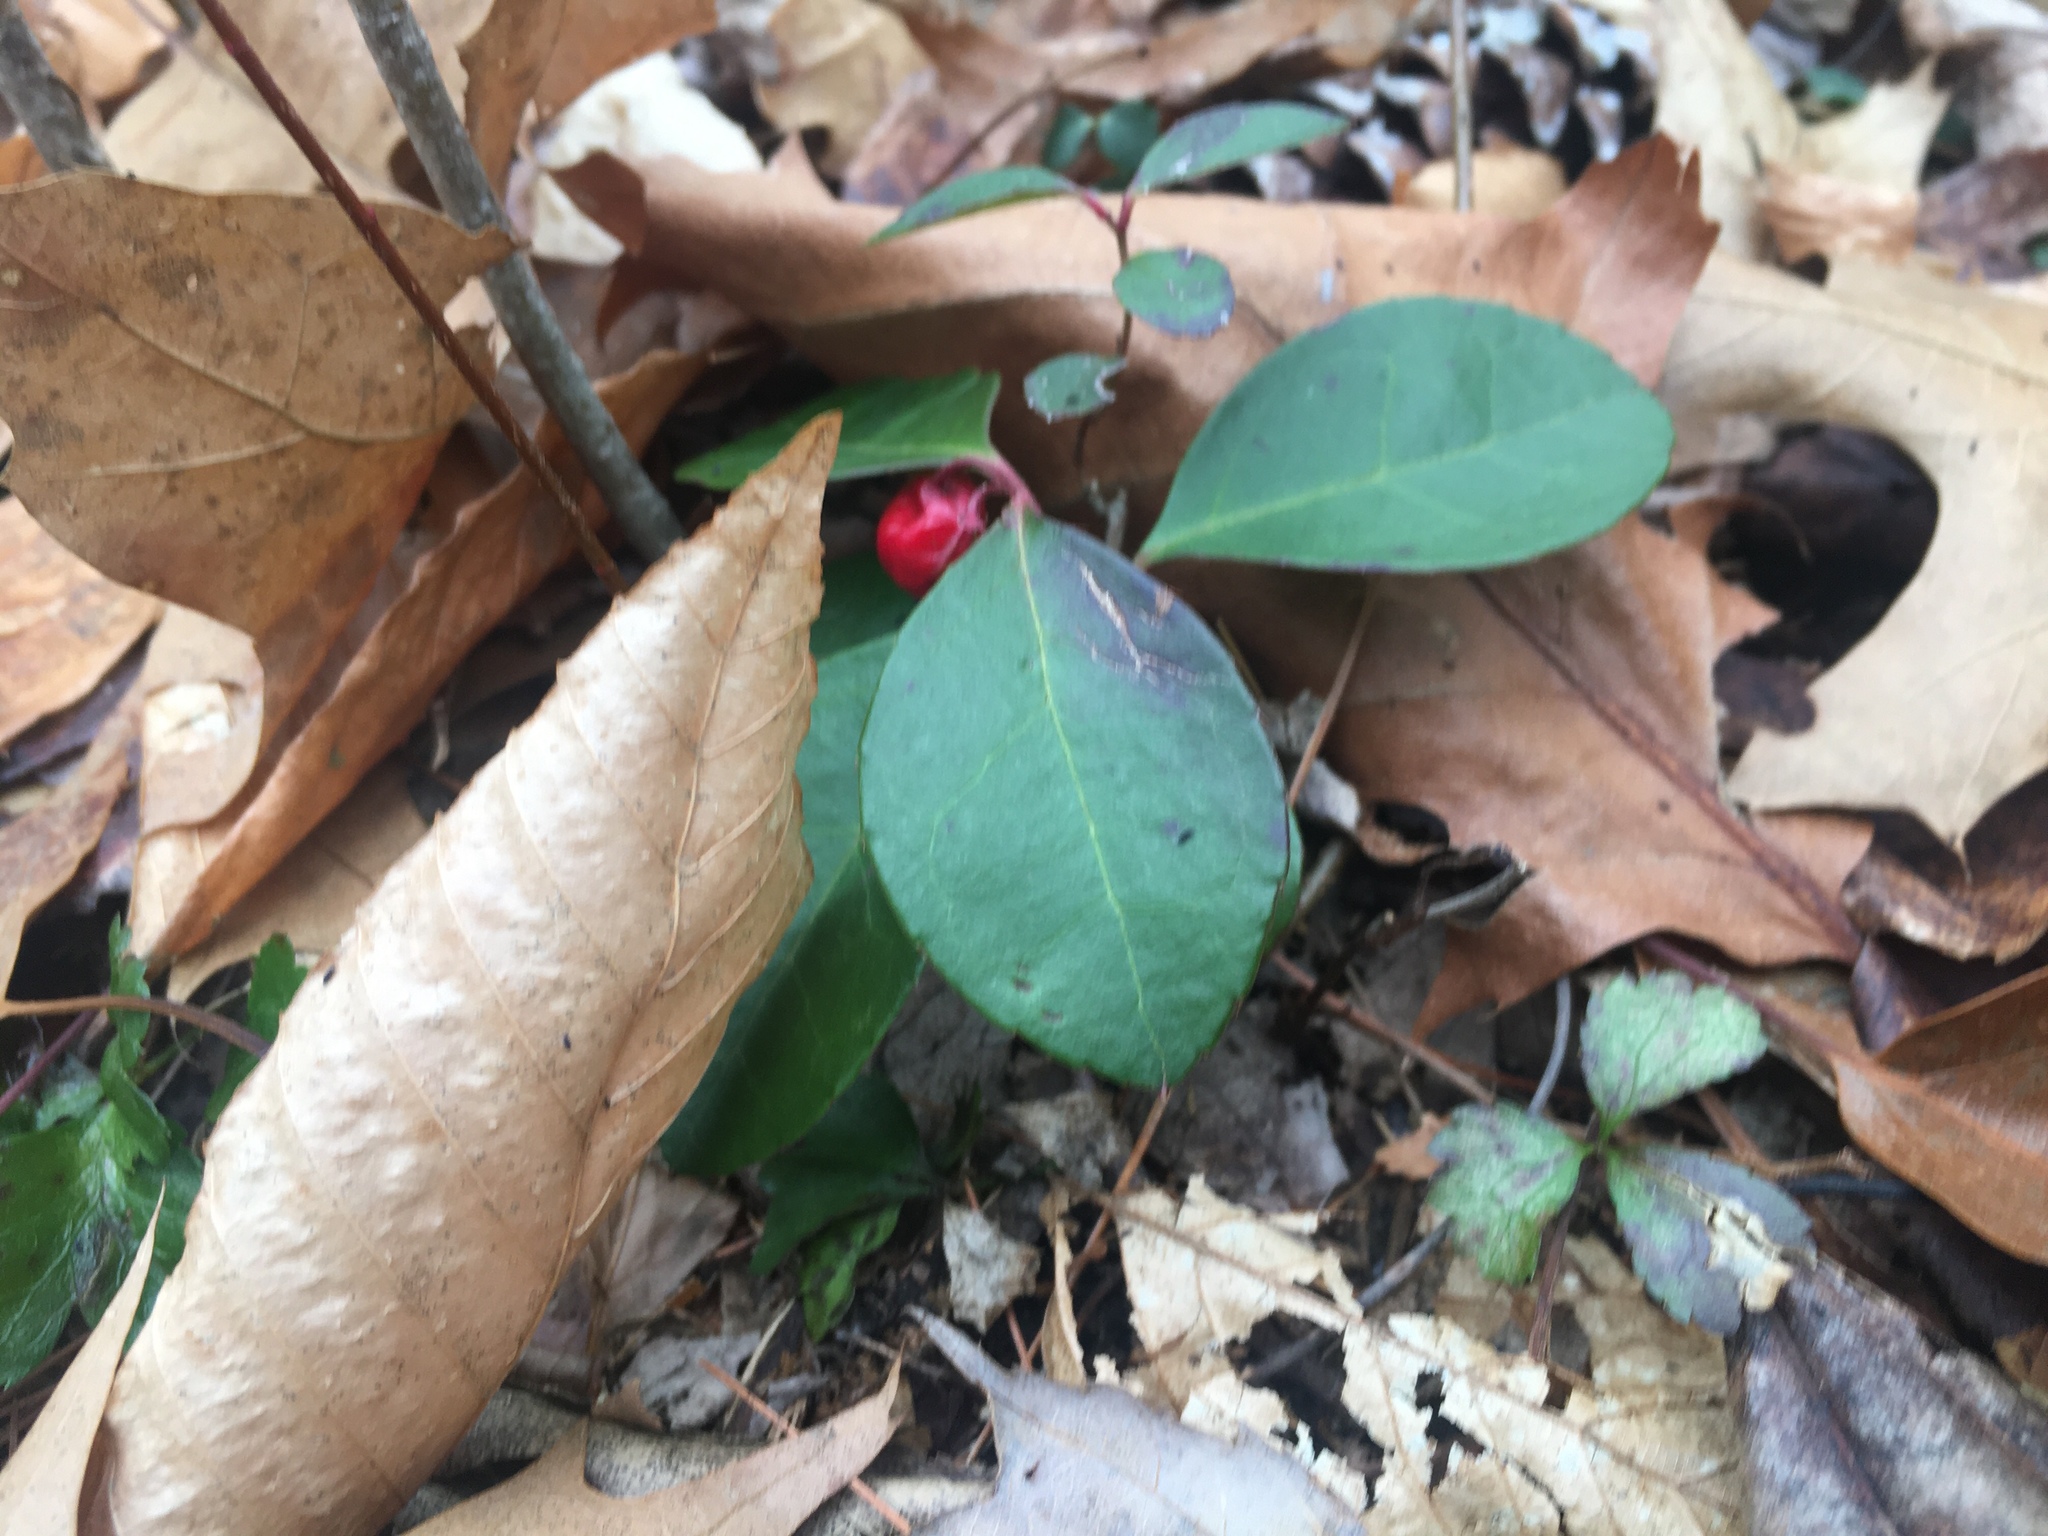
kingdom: Plantae
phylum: Tracheophyta
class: Magnoliopsida
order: Ericales
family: Ericaceae
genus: Gaultheria
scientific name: Gaultheria procumbens
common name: Checkerberry
